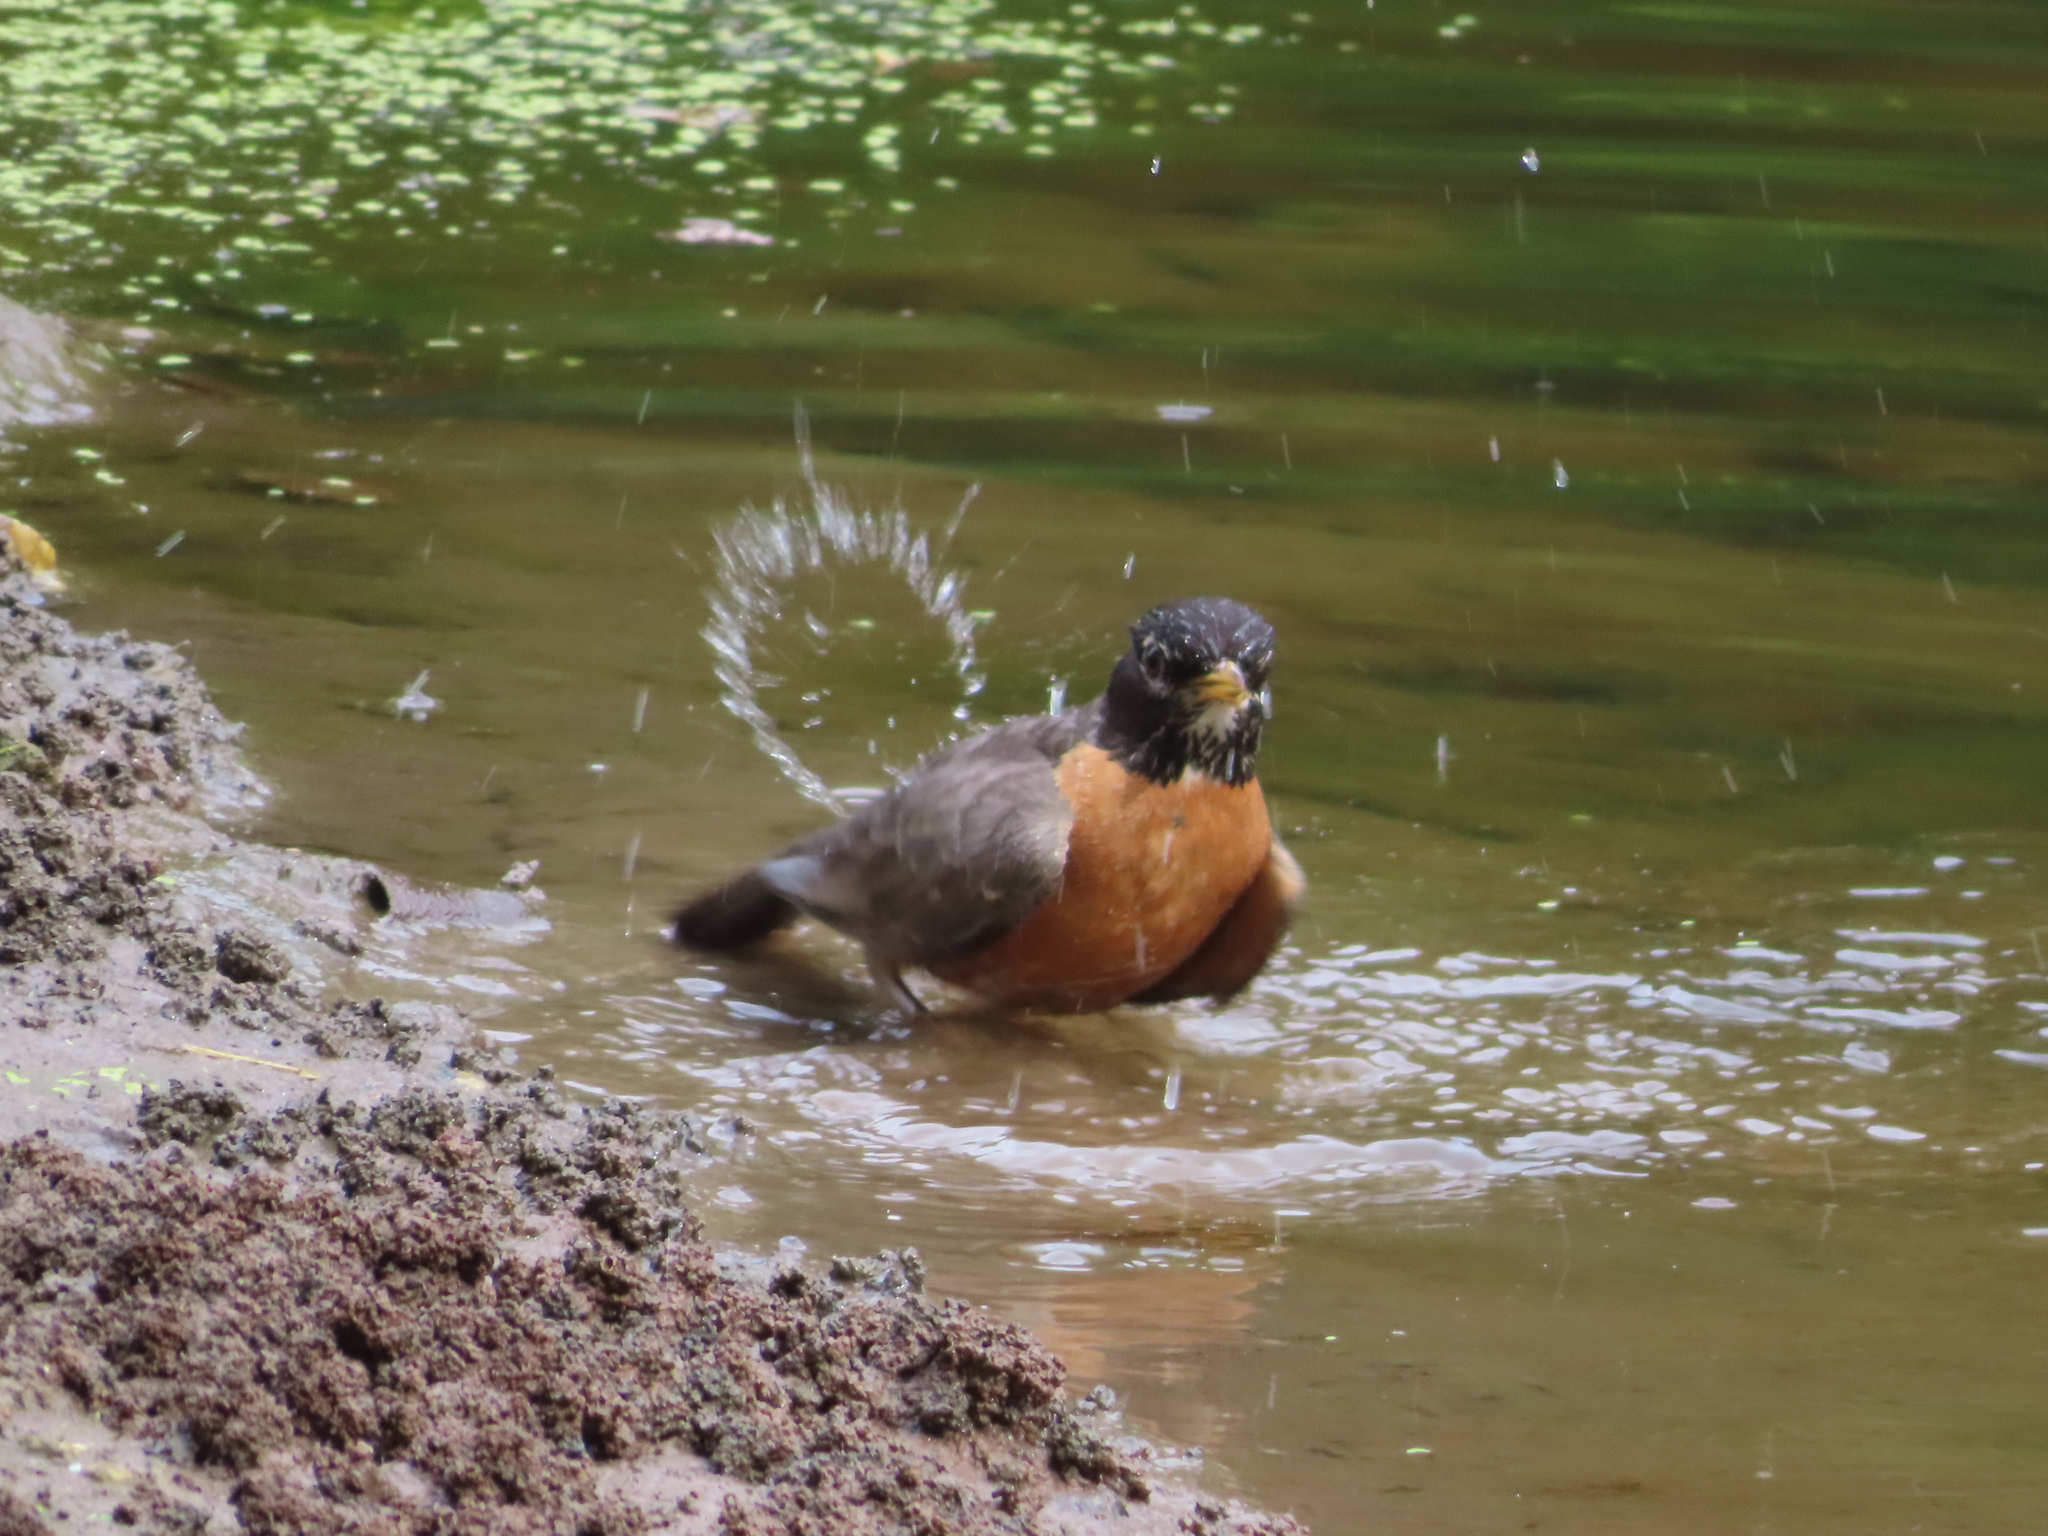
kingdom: Animalia
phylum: Chordata
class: Aves
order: Passeriformes
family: Turdidae
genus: Turdus
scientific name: Turdus migratorius
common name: American robin
